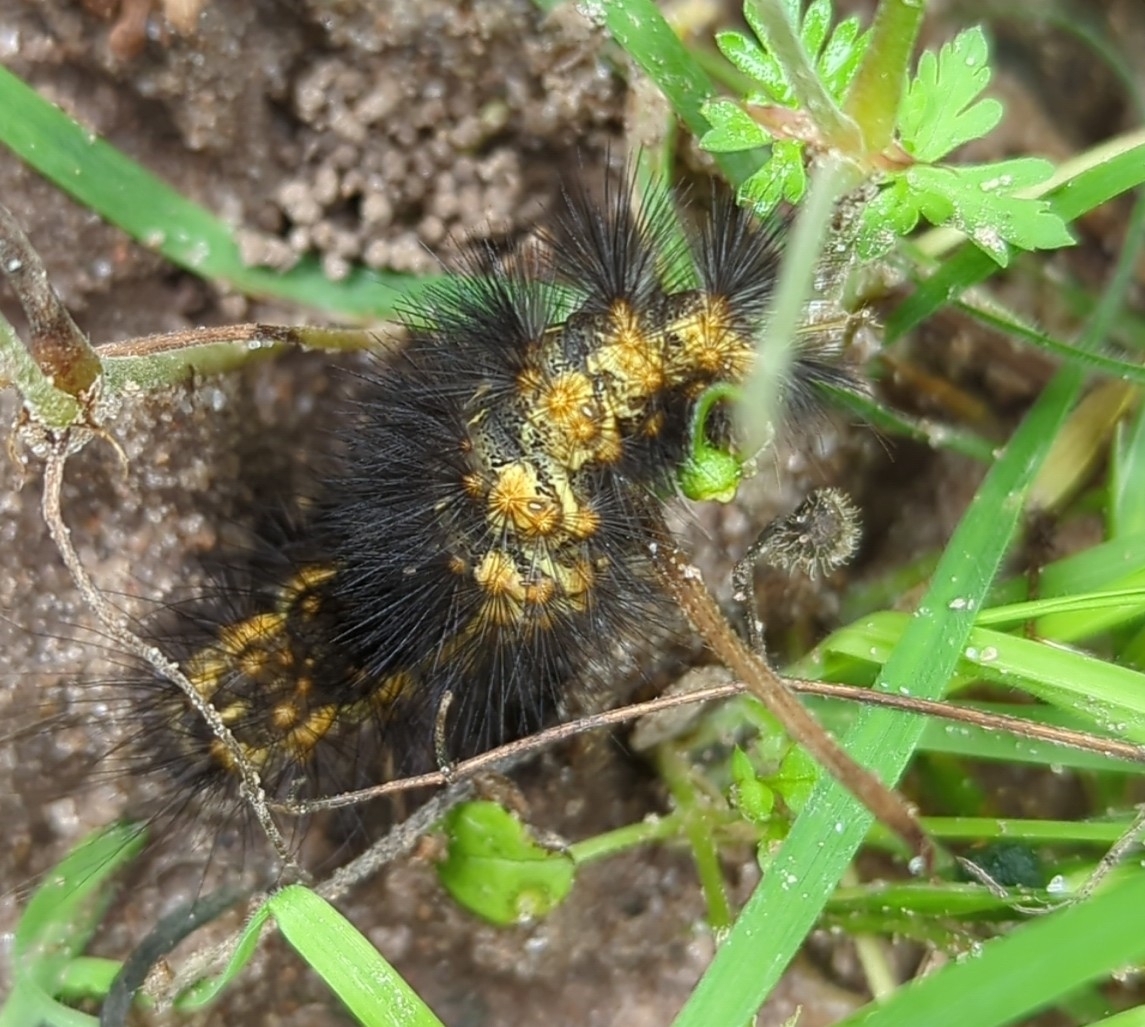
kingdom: Animalia
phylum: Arthropoda
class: Insecta
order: Lepidoptera
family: Erebidae
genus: Estigmene
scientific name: Estigmene acrea
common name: Salt marsh moth
